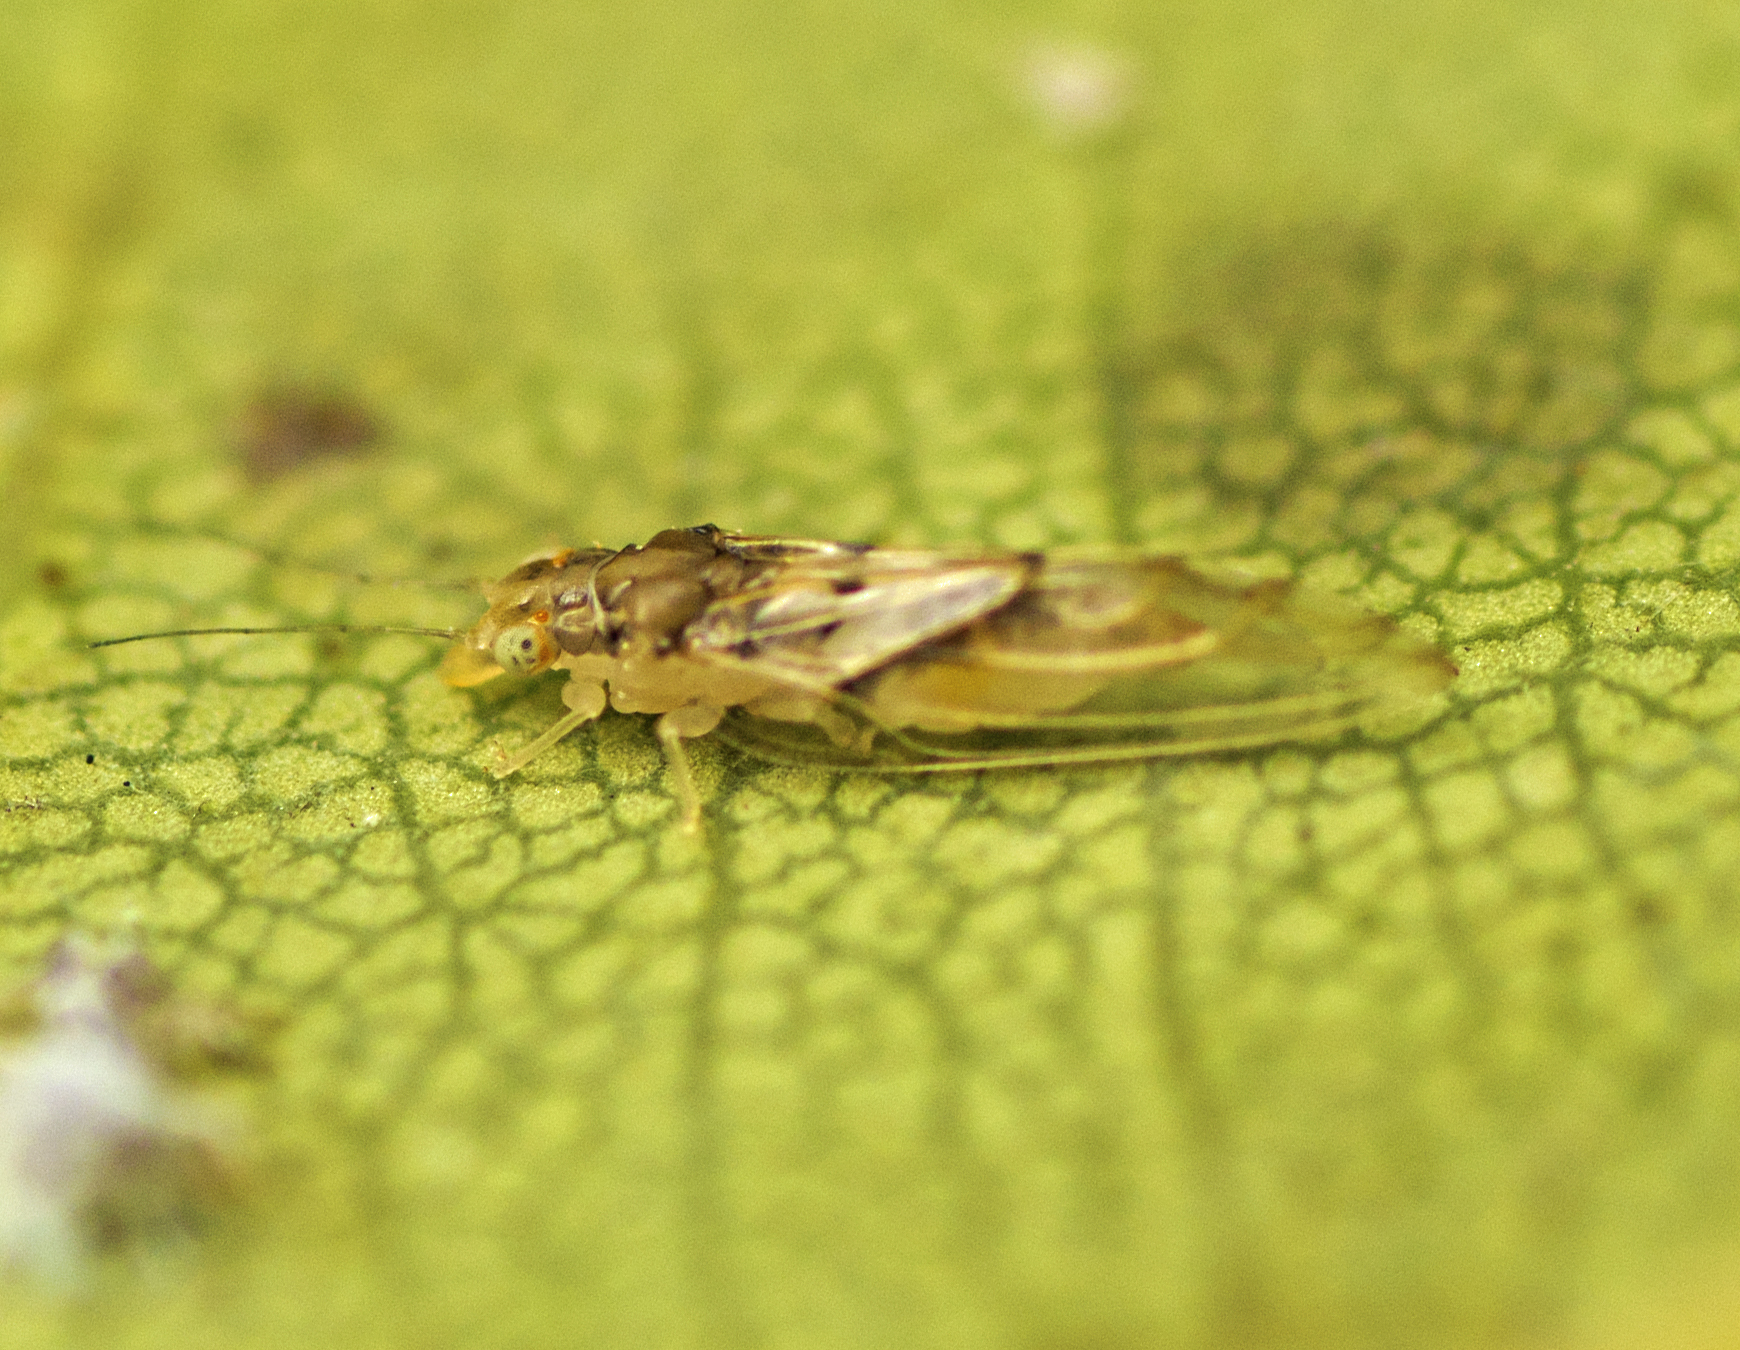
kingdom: Animalia
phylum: Arthropoda
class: Insecta
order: Hemiptera
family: Aphalaridae
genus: Boreioglycaspis
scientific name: Boreioglycaspis australiensis
